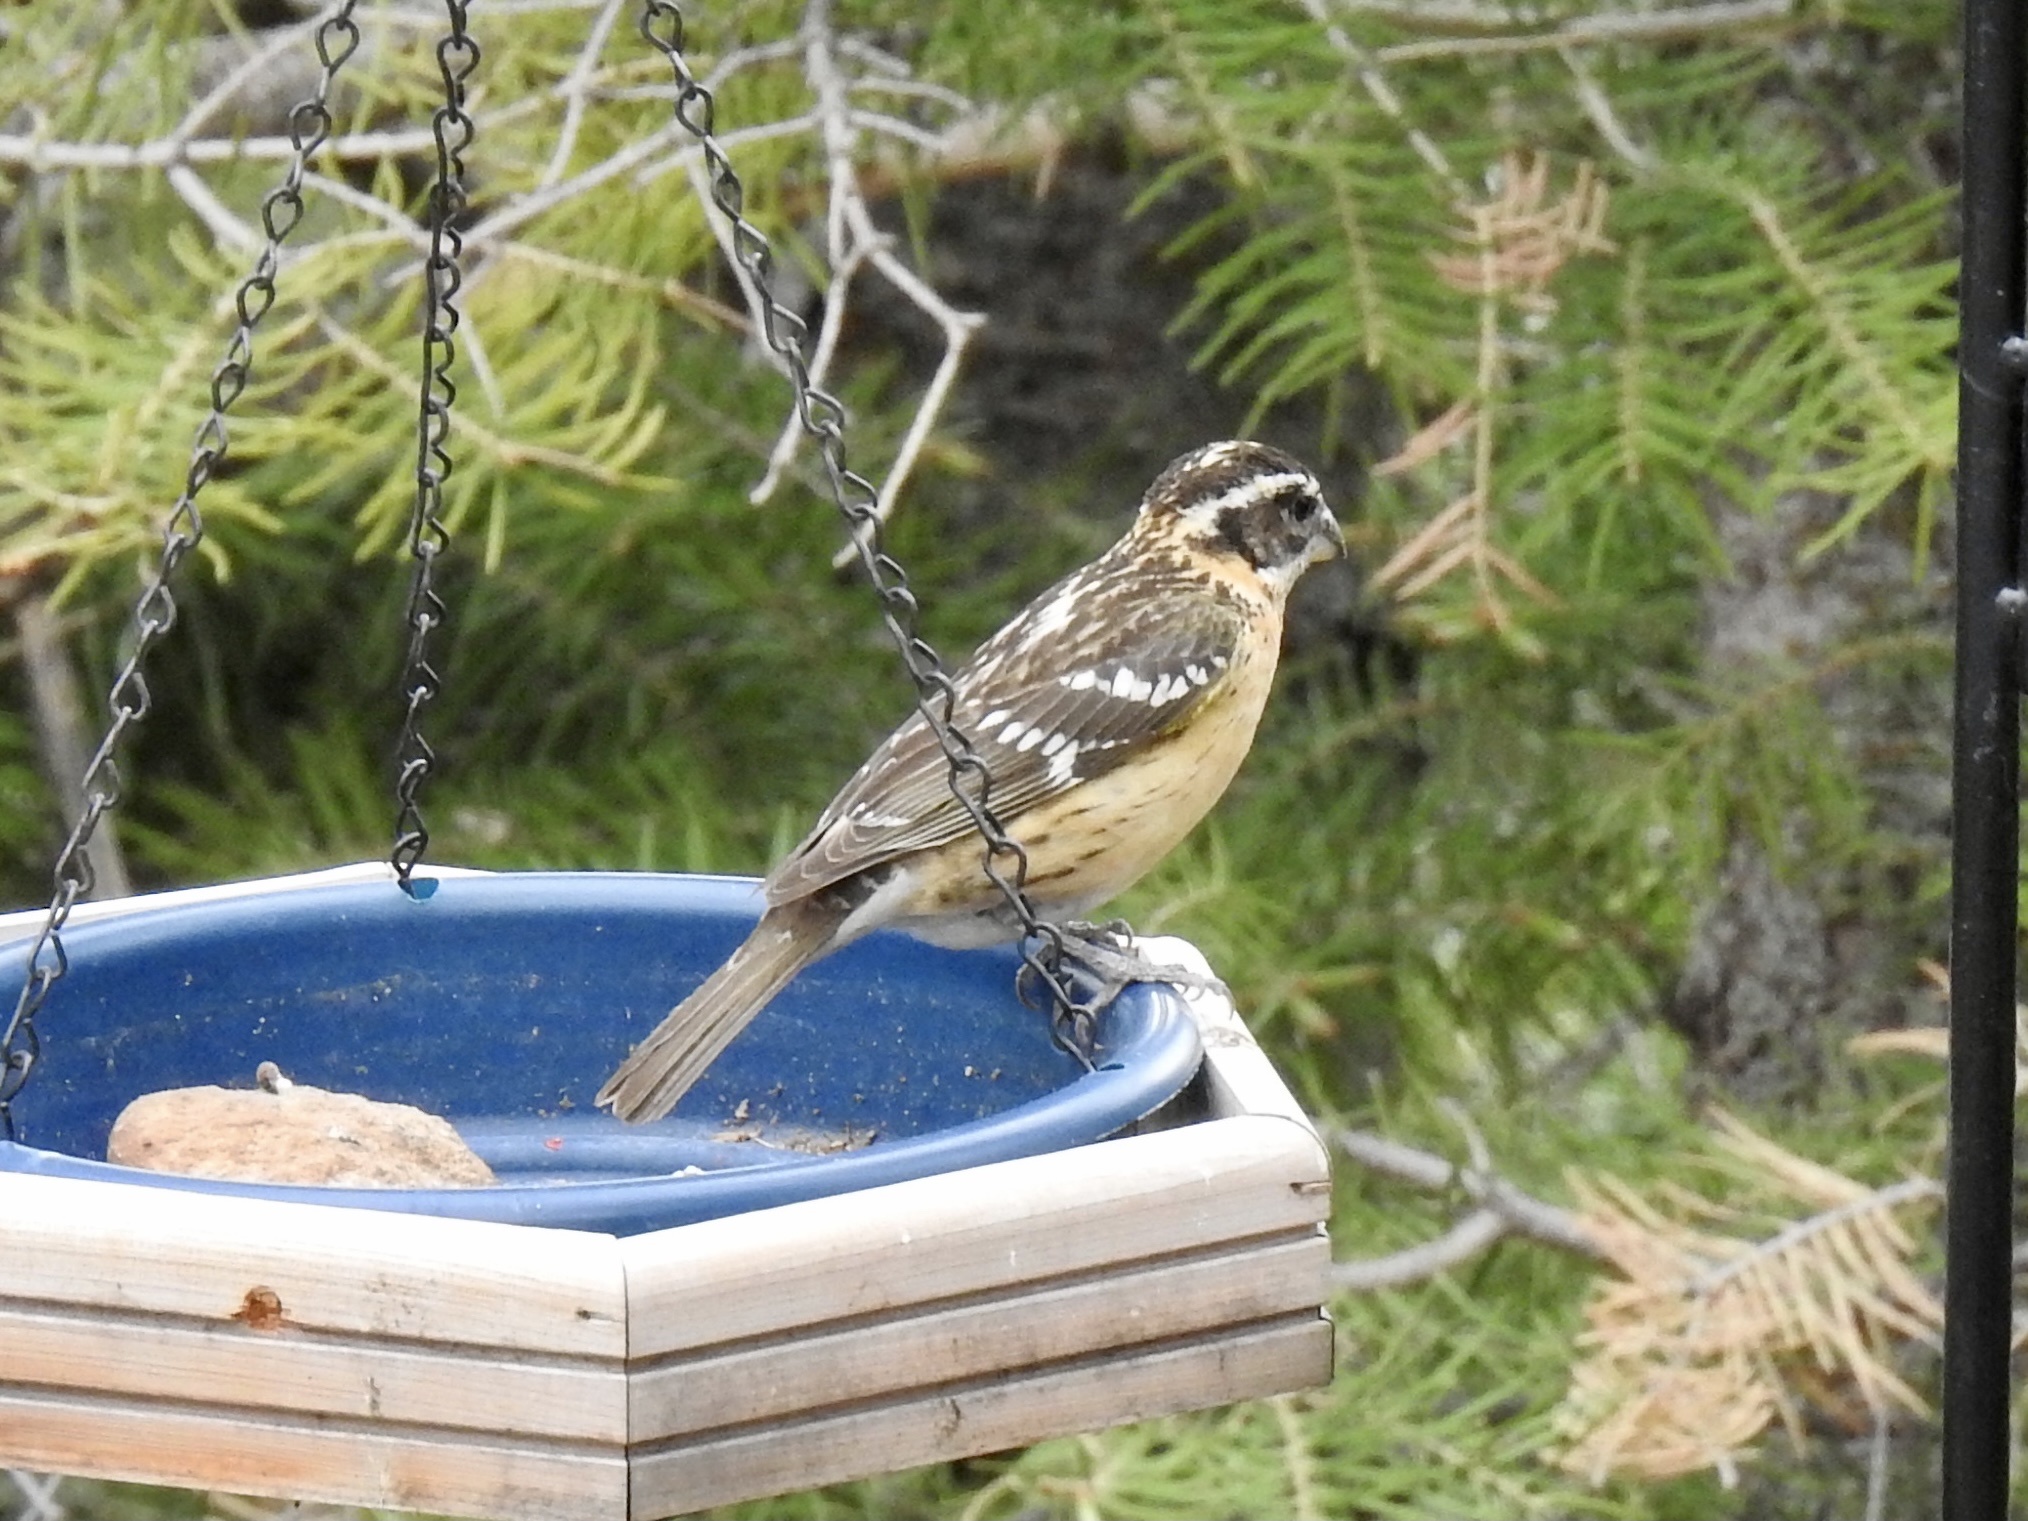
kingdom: Animalia
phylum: Chordata
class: Aves
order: Passeriformes
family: Cardinalidae
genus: Pheucticus
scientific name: Pheucticus melanocephalus
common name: Black-headed grosbeak
